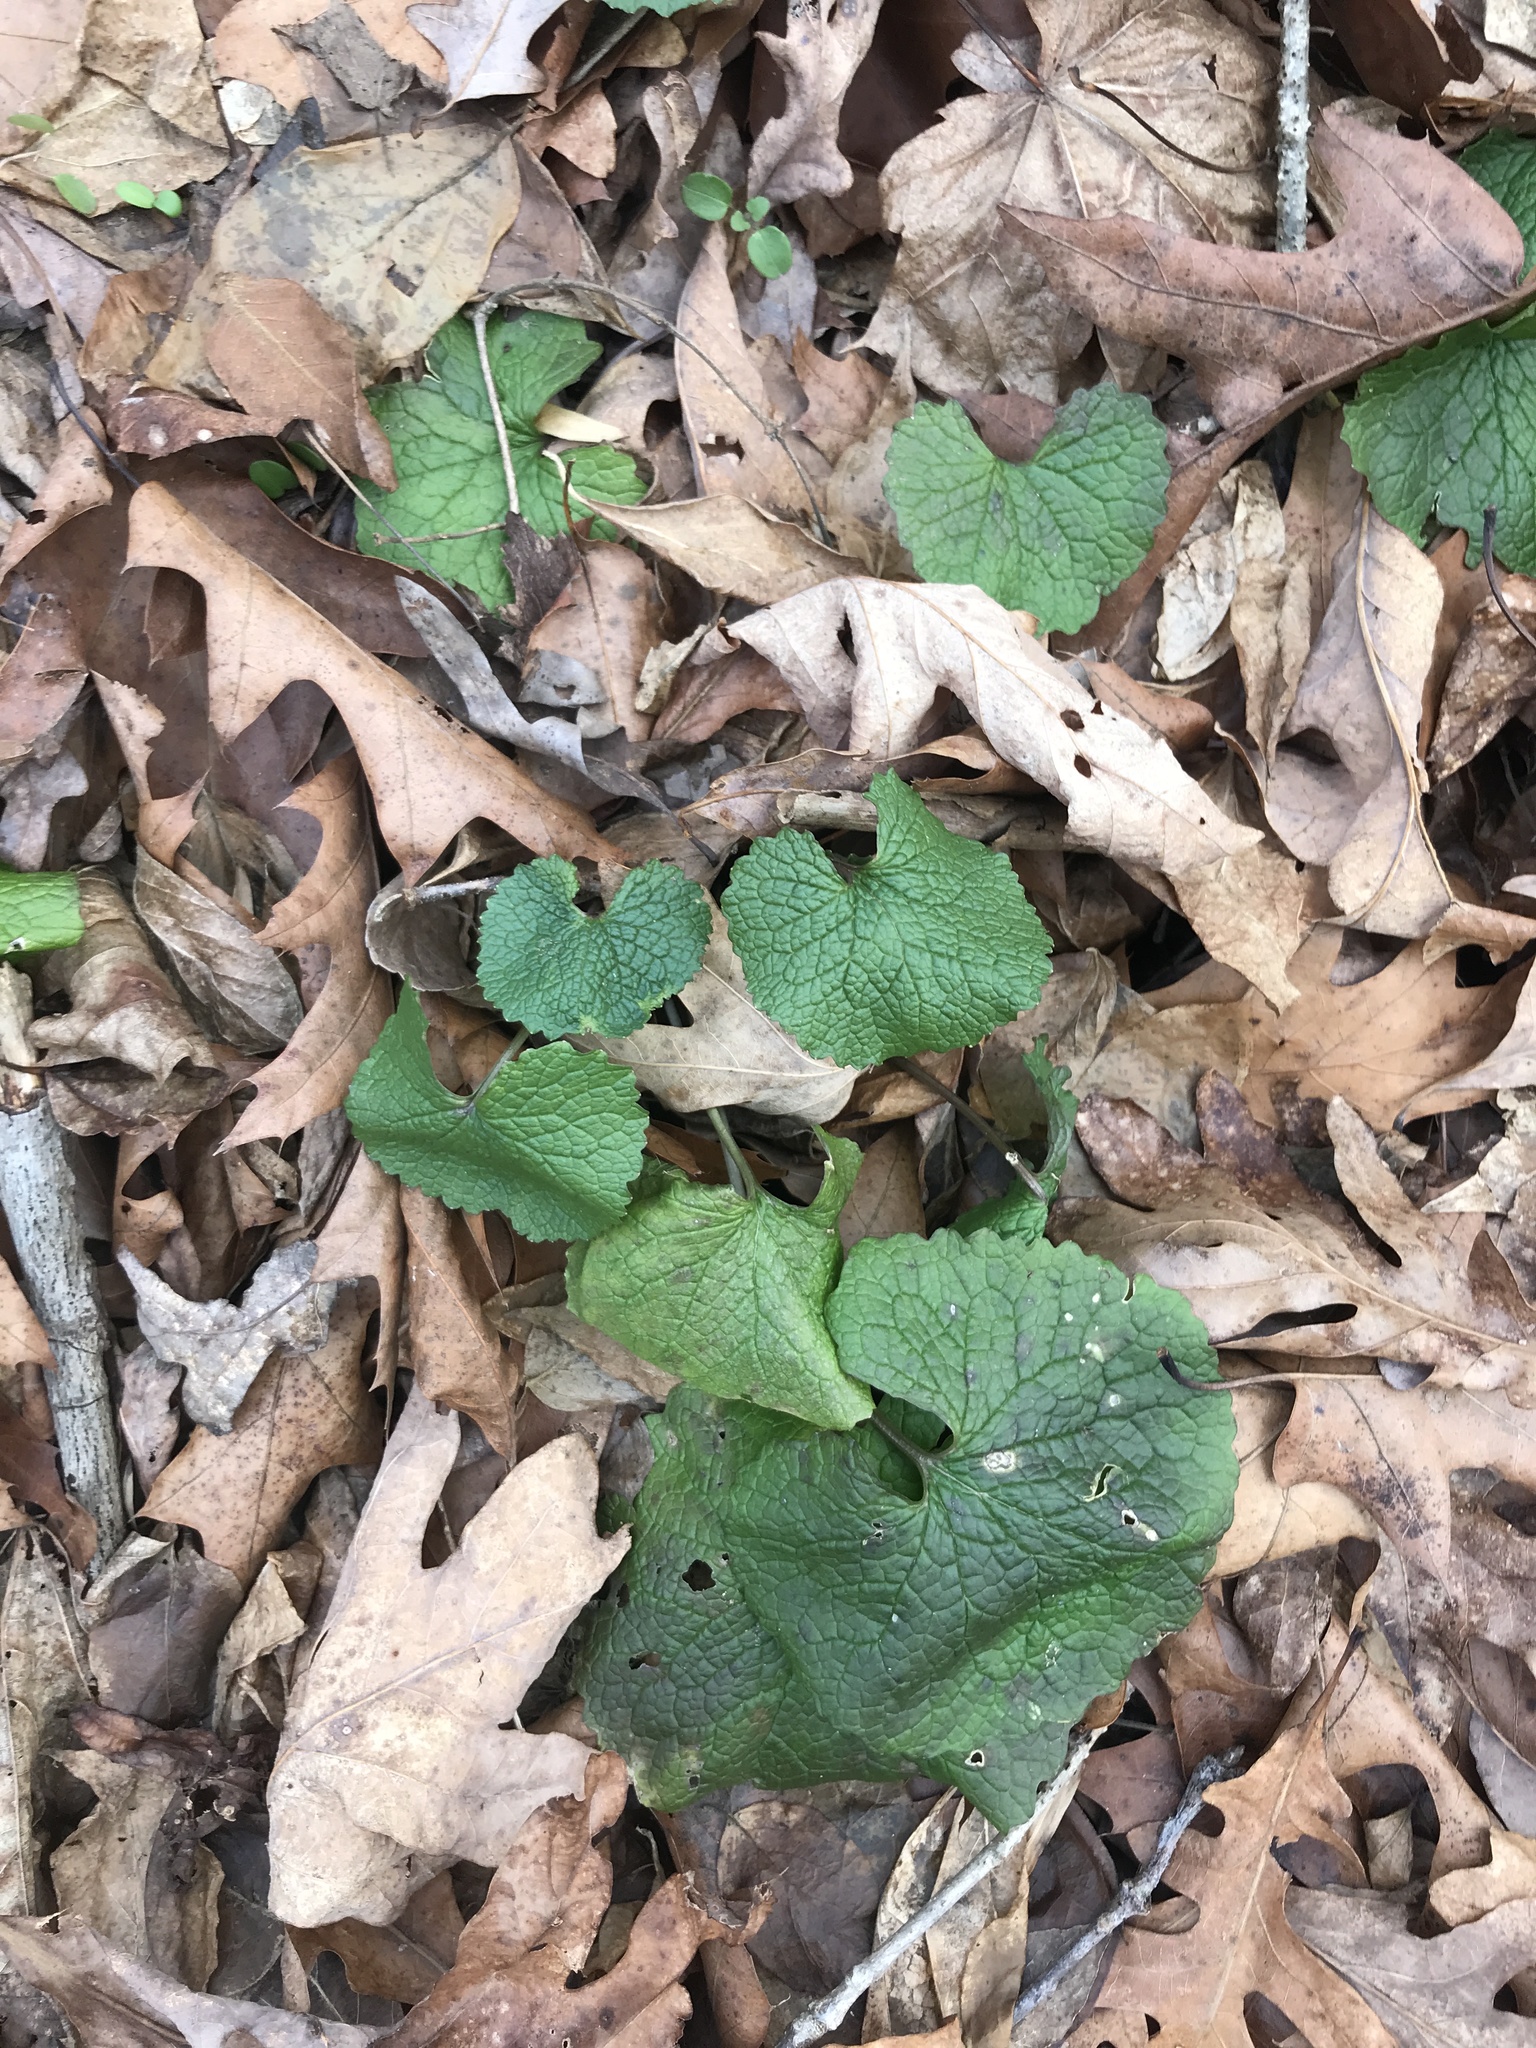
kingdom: Plantae
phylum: Tracheophyta
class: Magnoliopsida
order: Brassicales
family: Brassicaceae
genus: Alliaria
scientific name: Alliaria petiolata
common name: Garlic mustard
